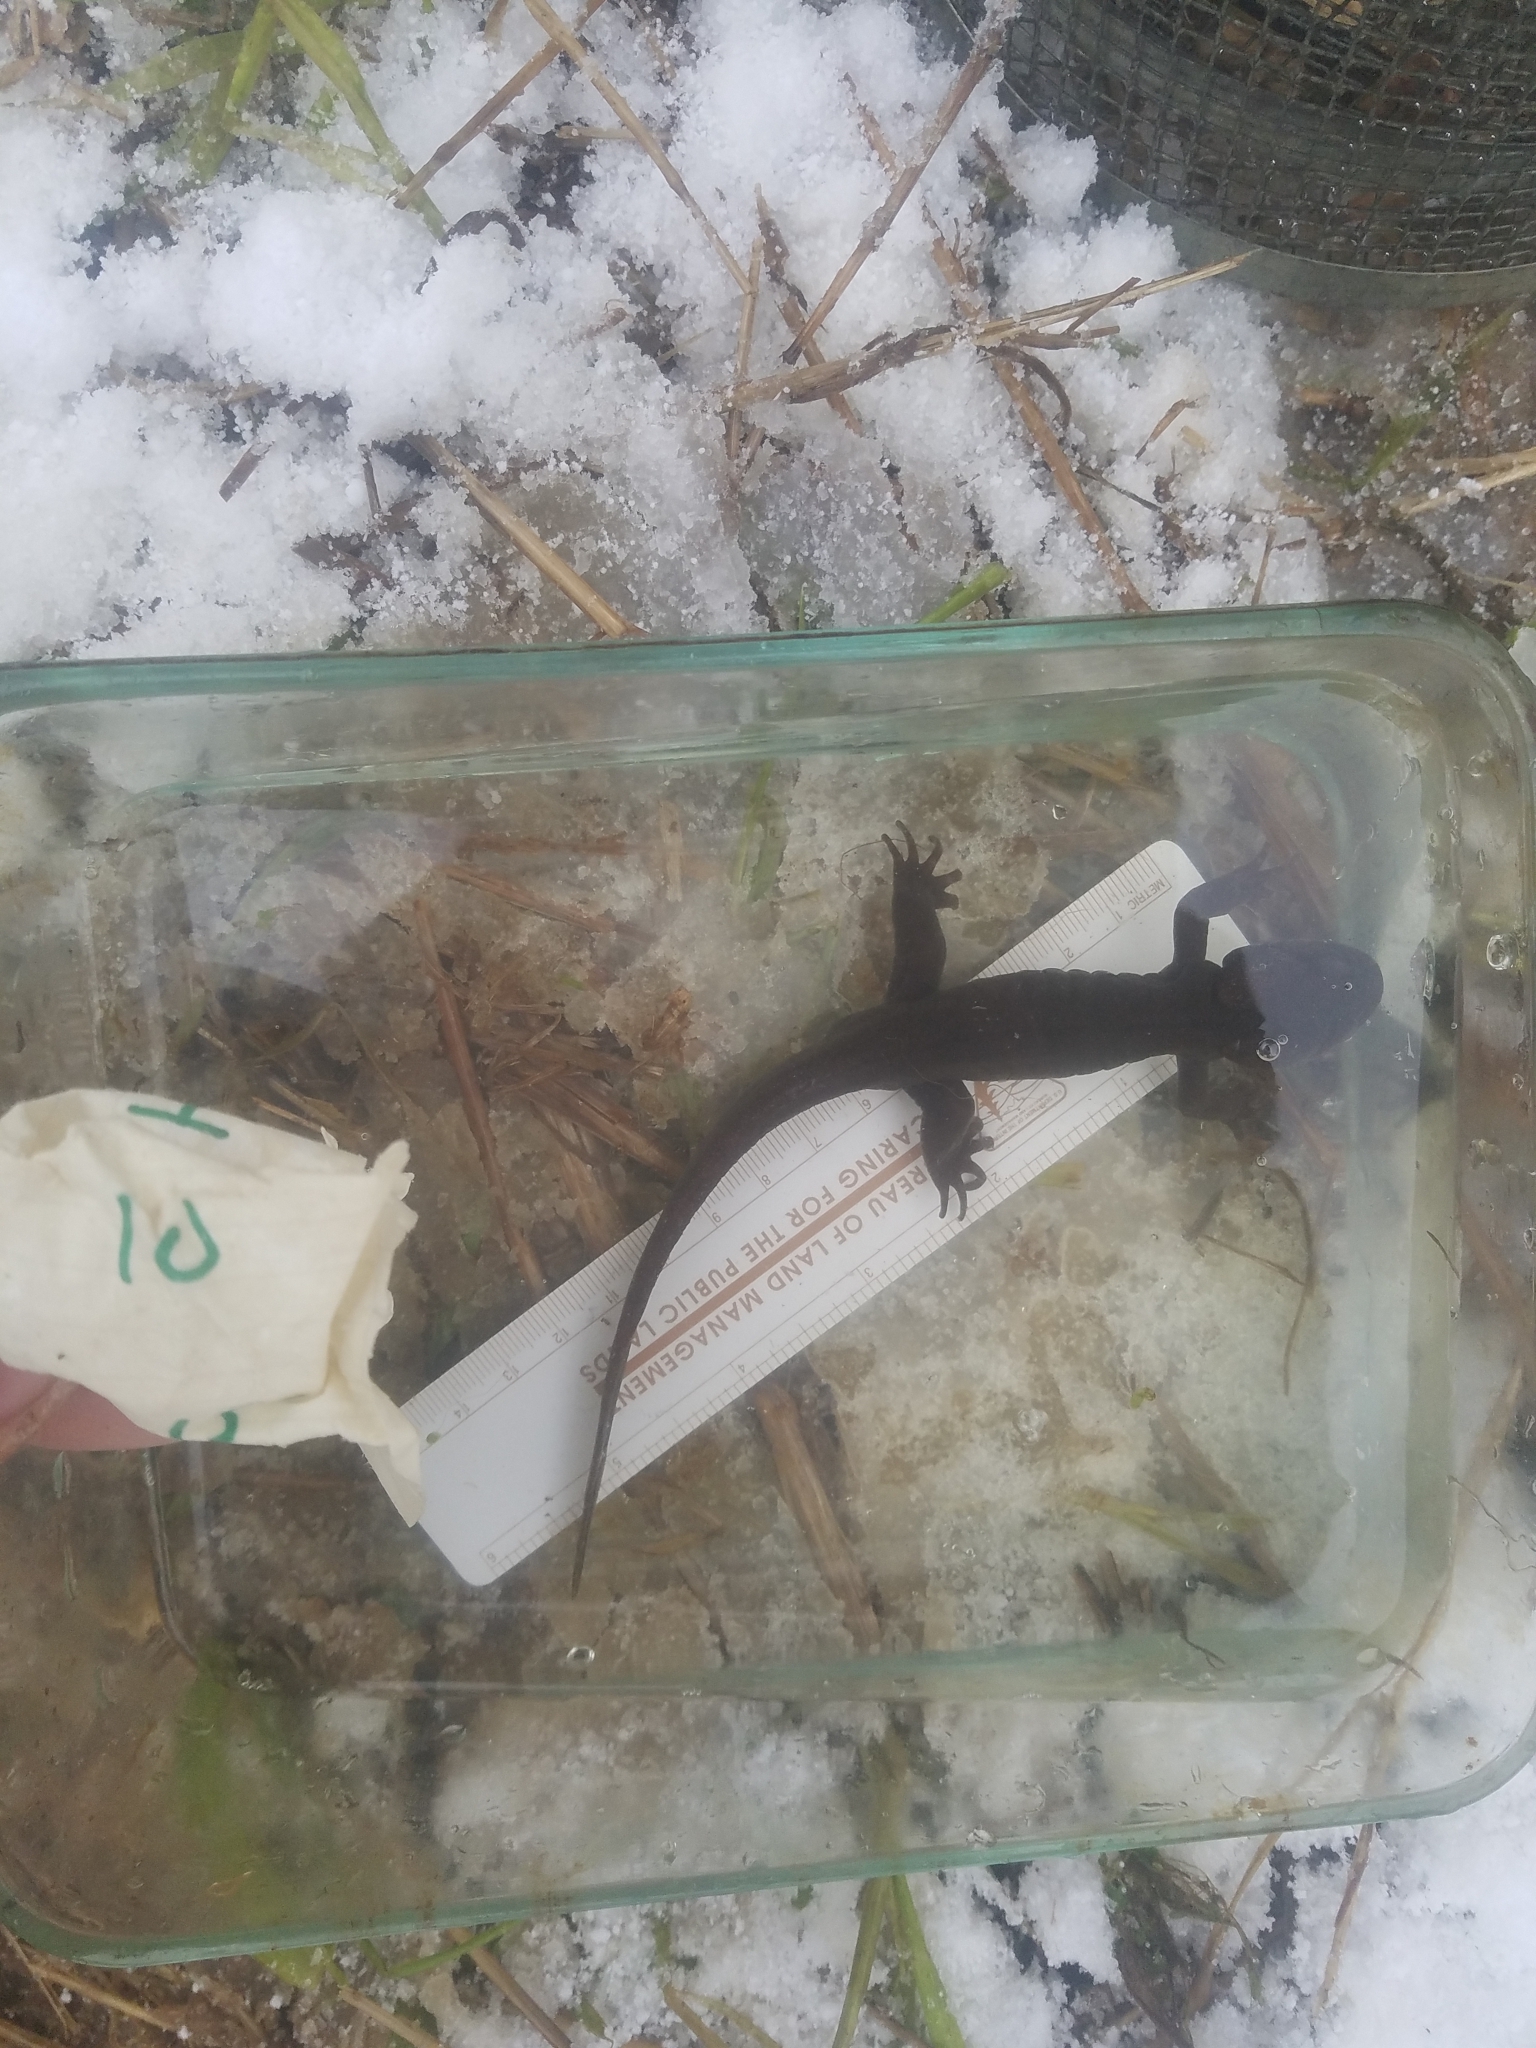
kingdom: Animalia
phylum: Chordata
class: Amphibia
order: Caudata
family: Ambystomatidae
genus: Ambystoma
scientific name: Ambystoma gracile
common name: Northwestern salamander
